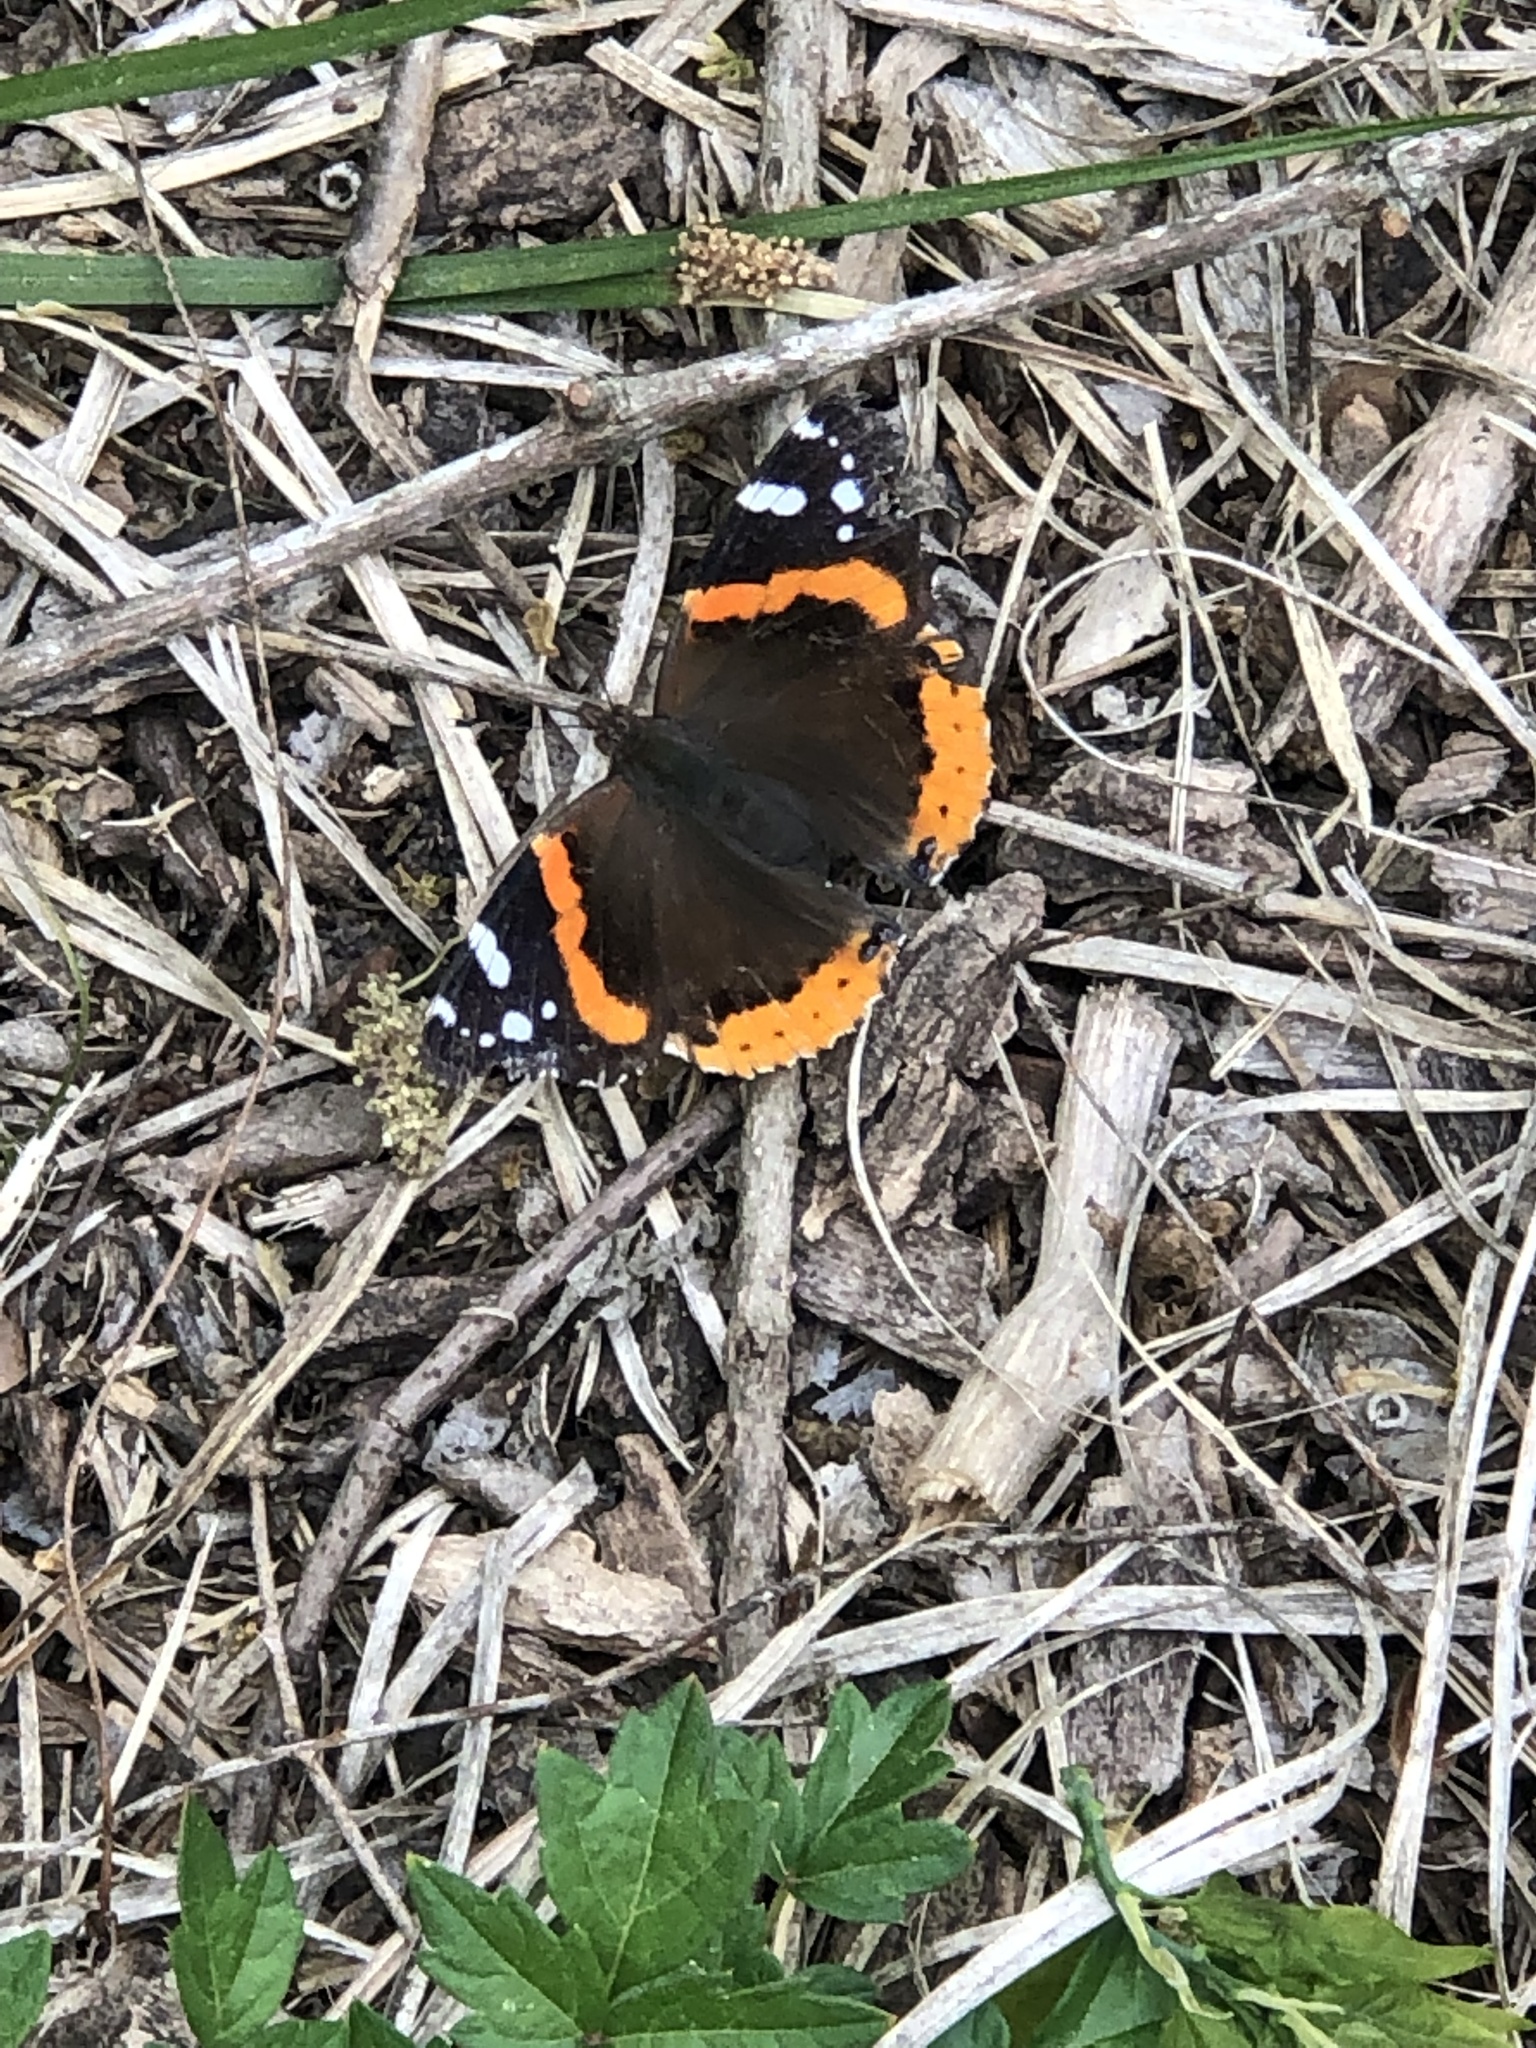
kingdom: Animalia
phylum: Arthropoda
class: Insecta
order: Lepidoptera
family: Nymphalidae
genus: Vanessa
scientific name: Vanessa atalanta
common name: Red admiral
